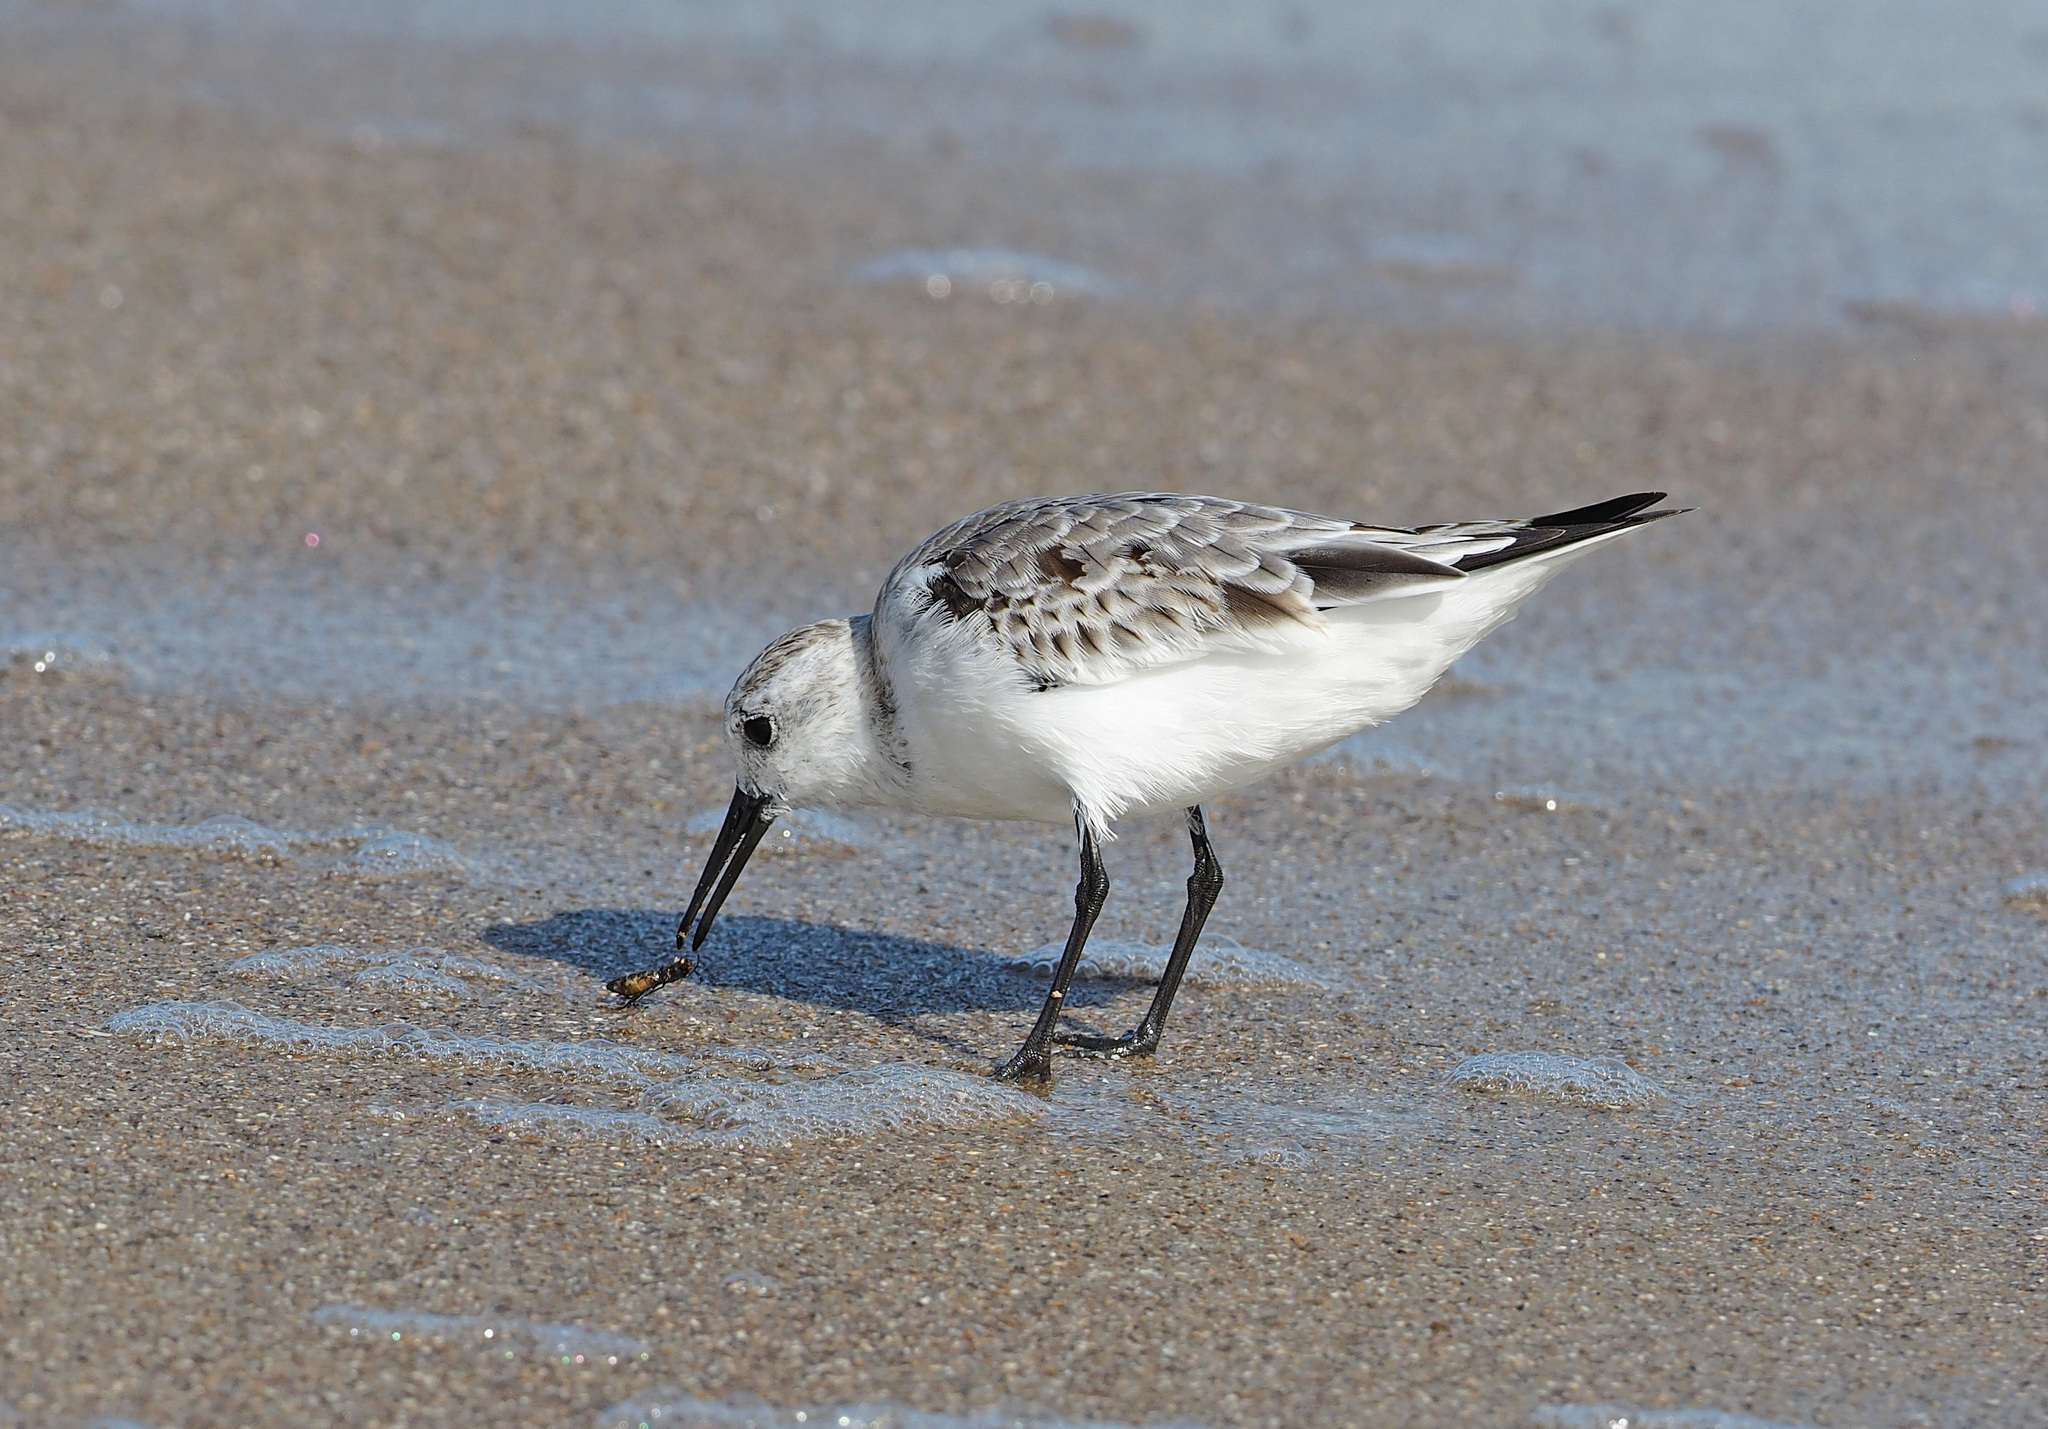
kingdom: Animalia
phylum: Chordata
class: Aves
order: Charadriiformes
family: Scolopacidae
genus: Calidris
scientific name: Calidris alba
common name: Sanderling
